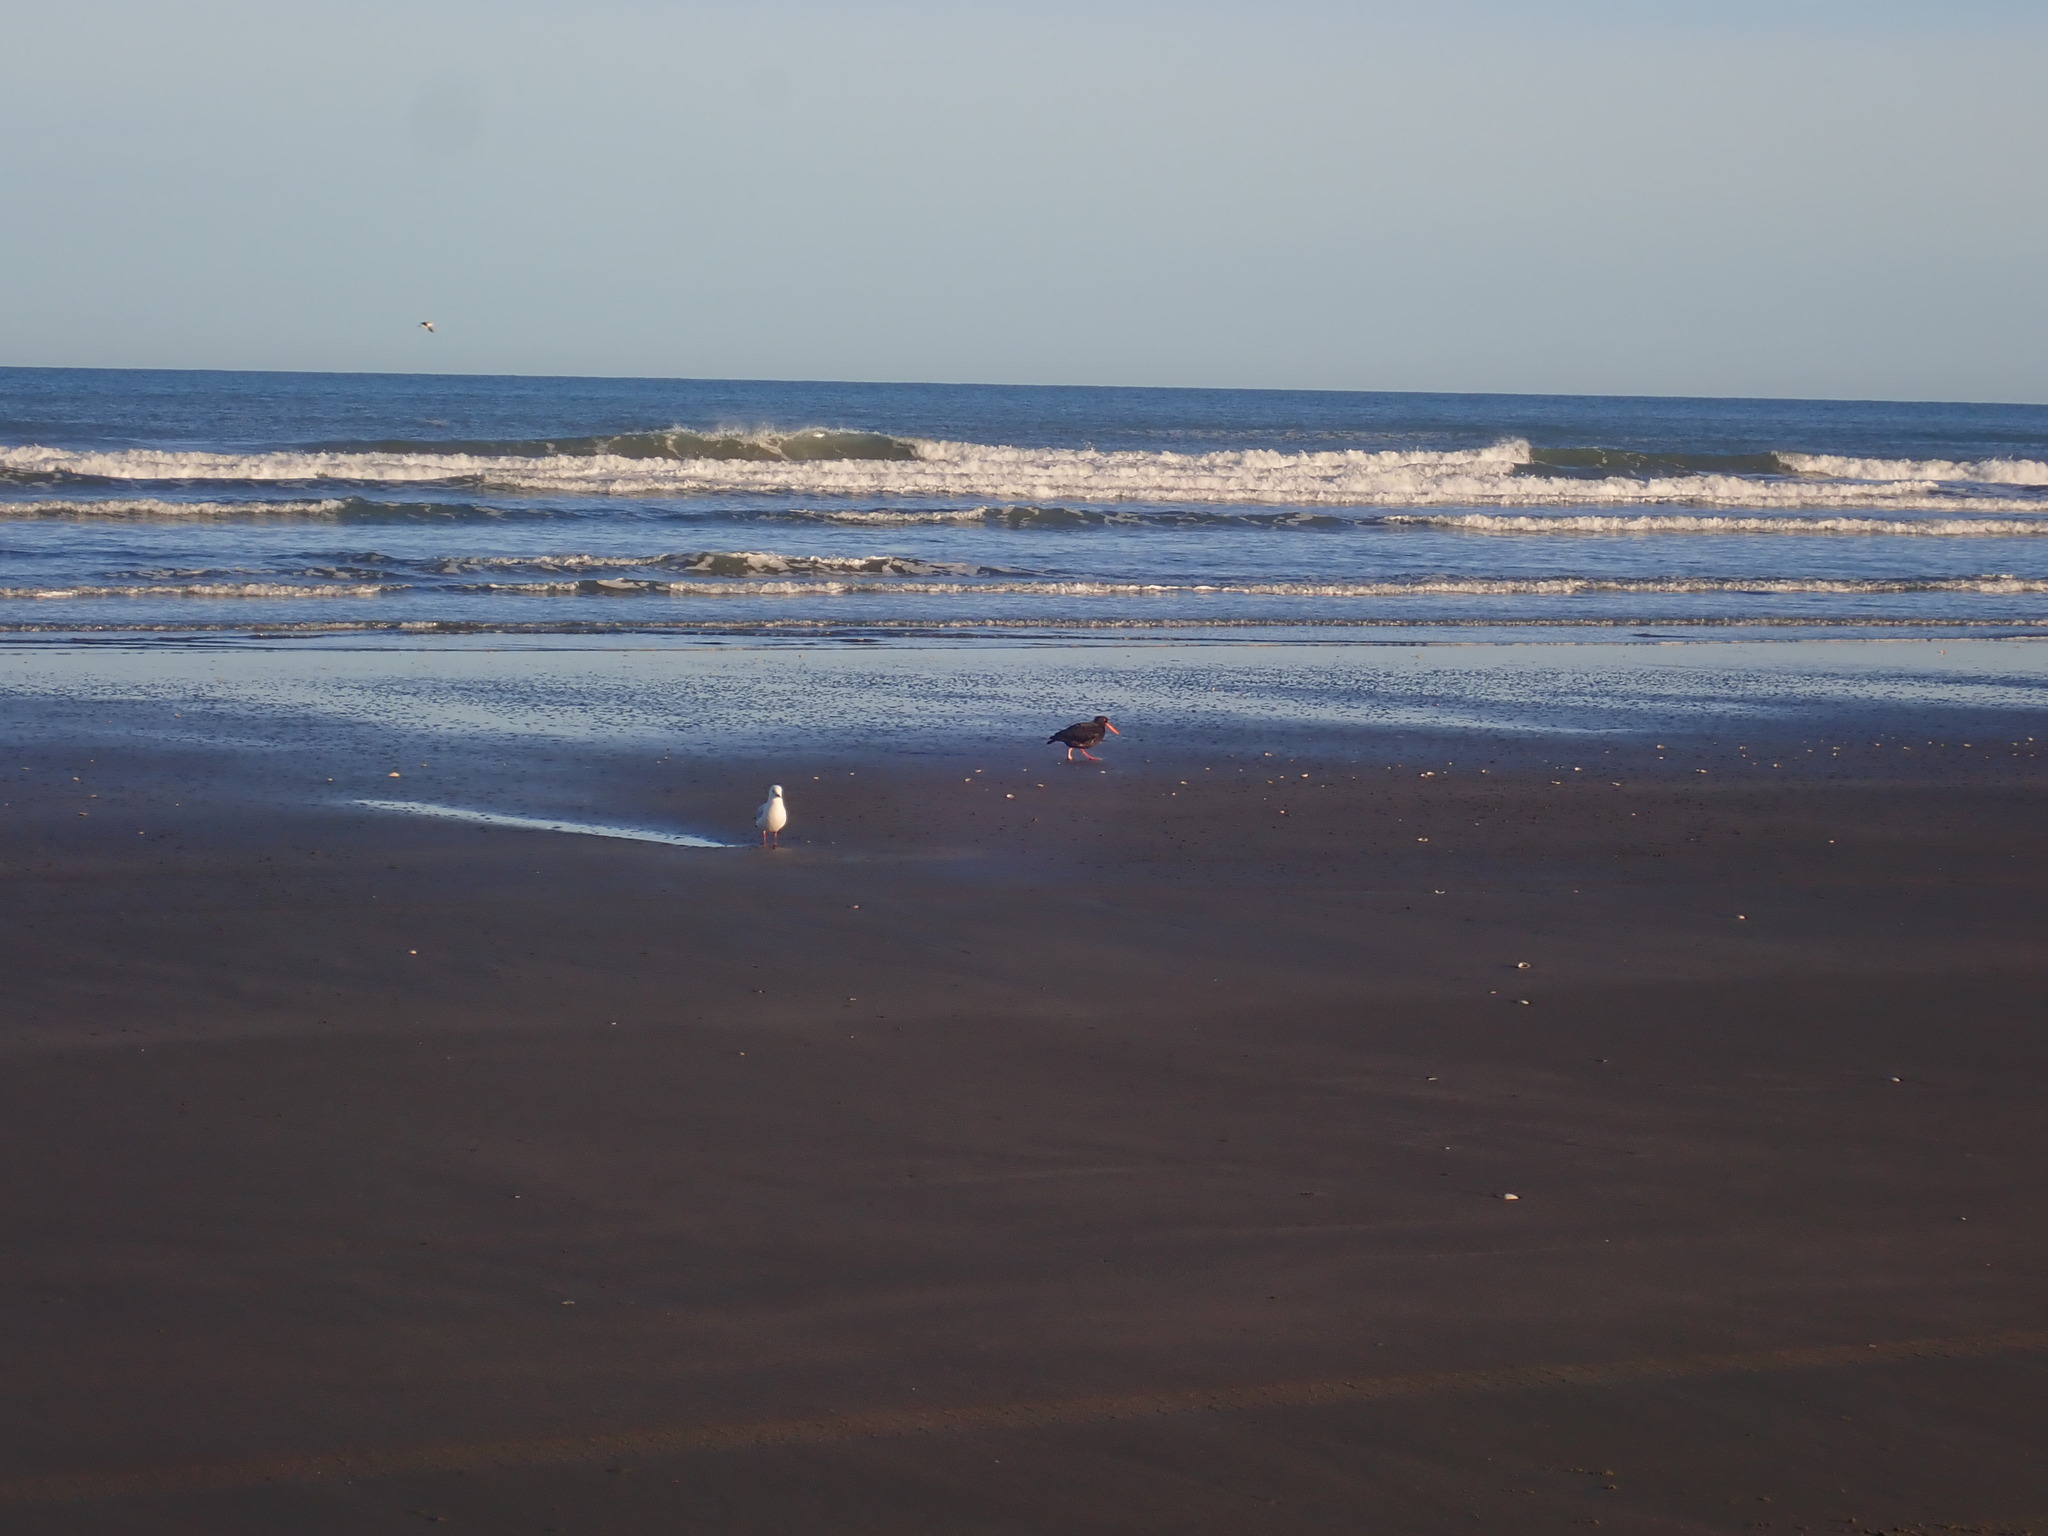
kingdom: Animalia
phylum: Chordata
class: Aves
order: Charadriiformes
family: Haematopodidae
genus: Haematopus
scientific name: Haematopus unicolor
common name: Variable oystercatcher
